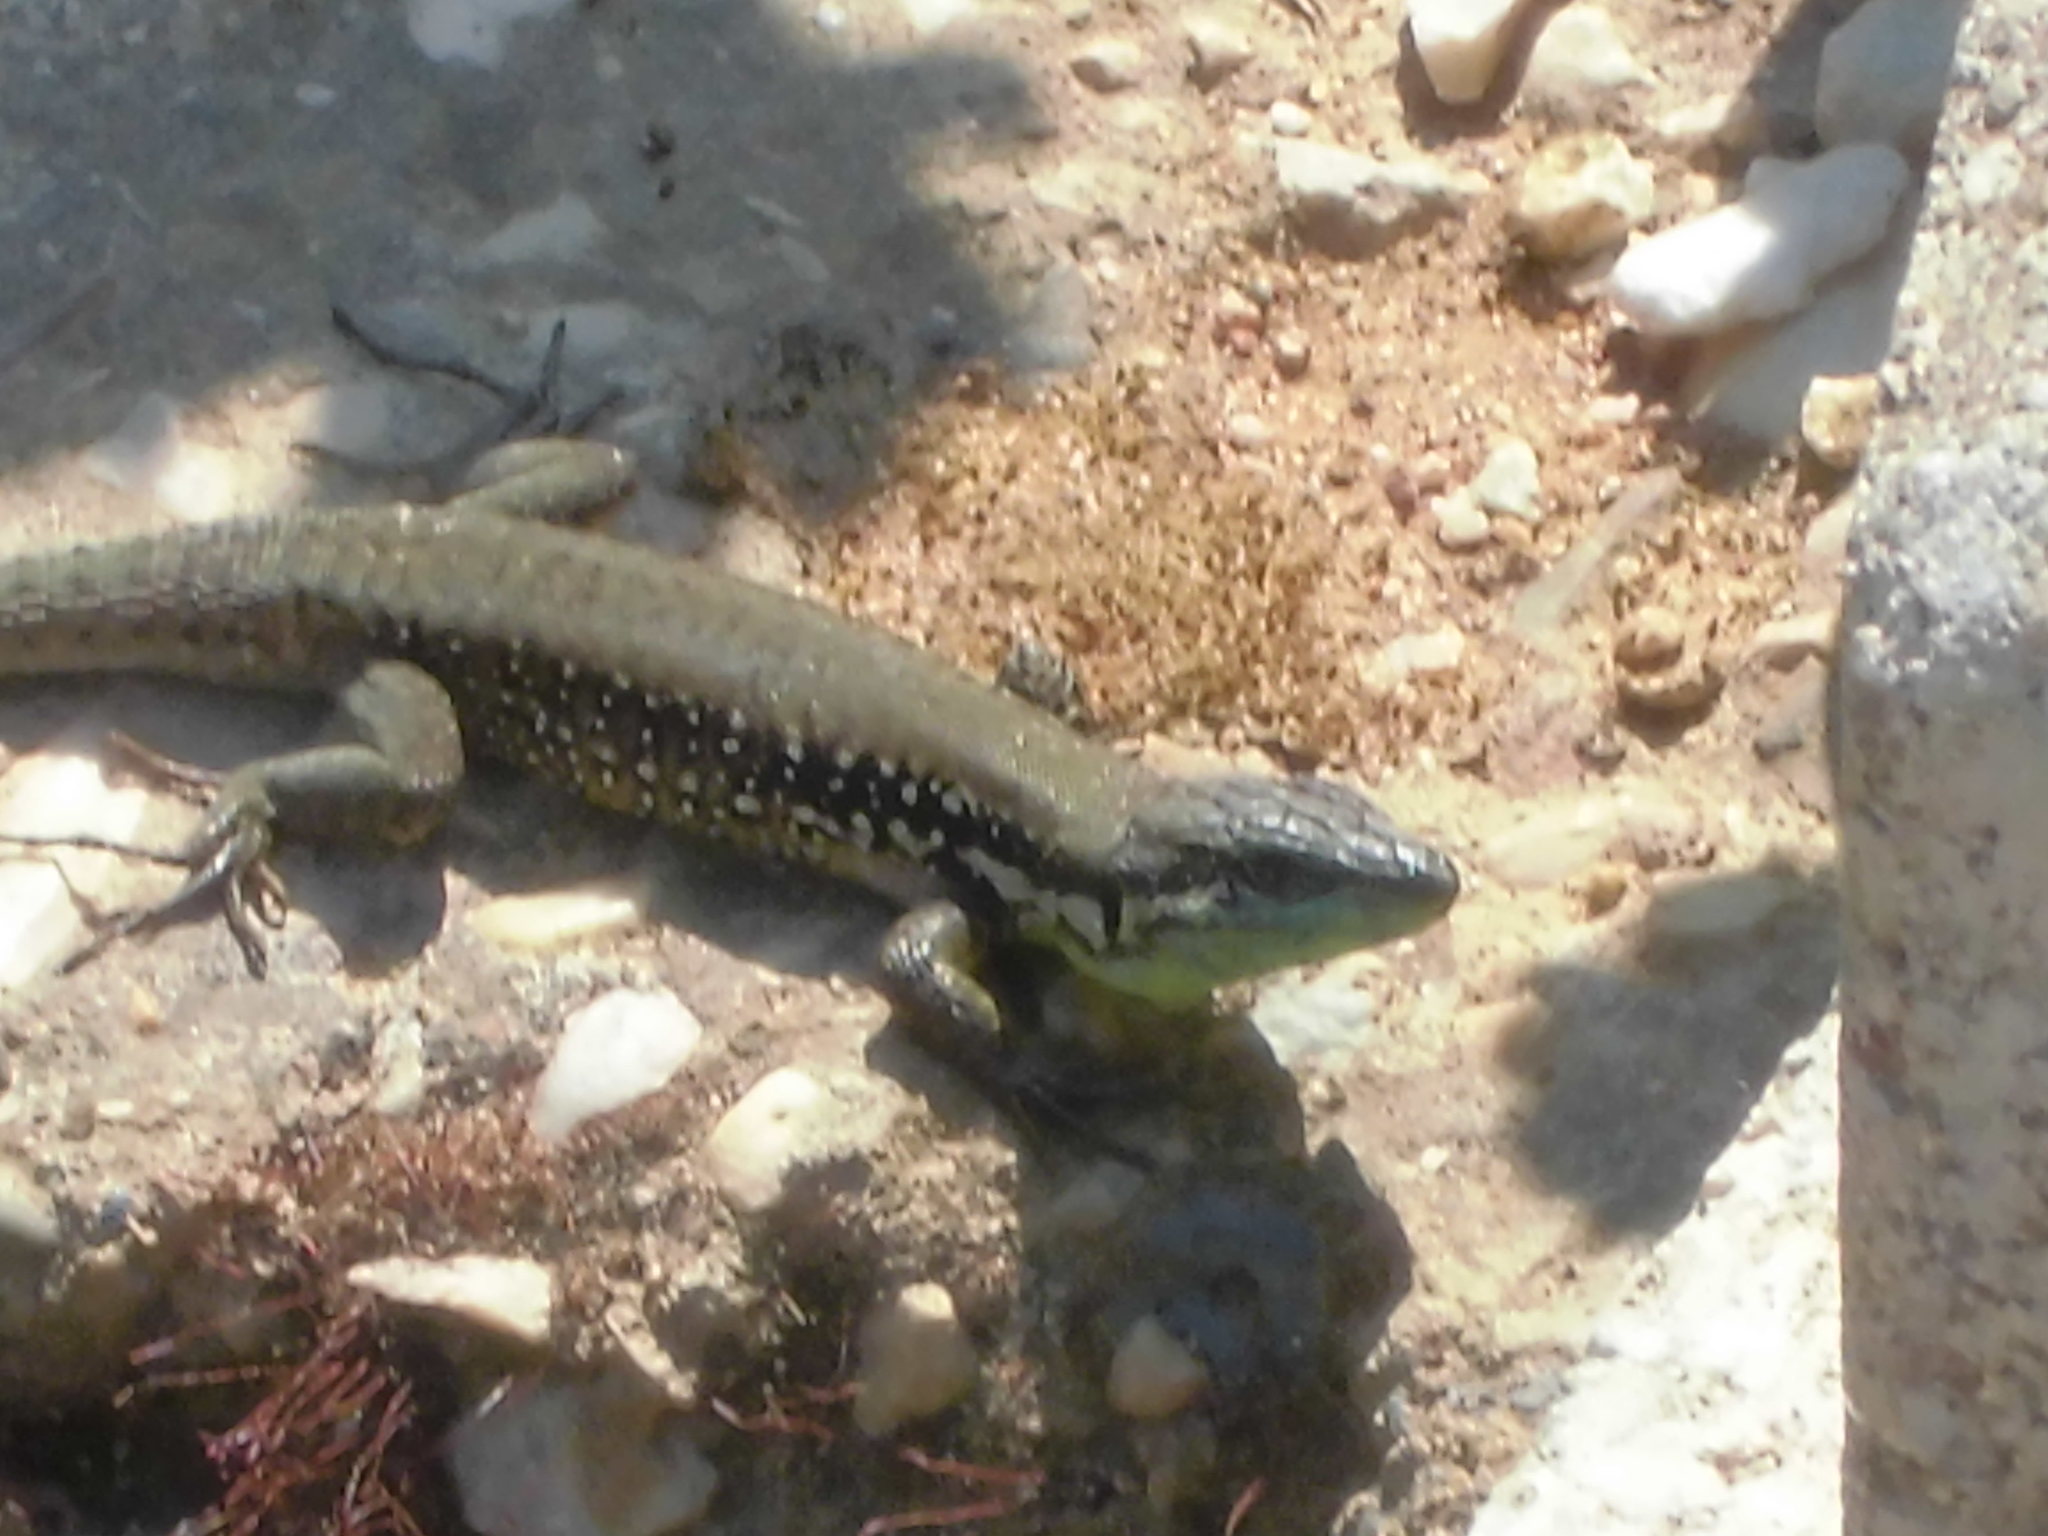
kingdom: Animalia
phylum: Chordata
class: Squamata
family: Lacertidae
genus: Phoenicolacerta
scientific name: Phoenicolacerta laevis
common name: Lebanon lizard
